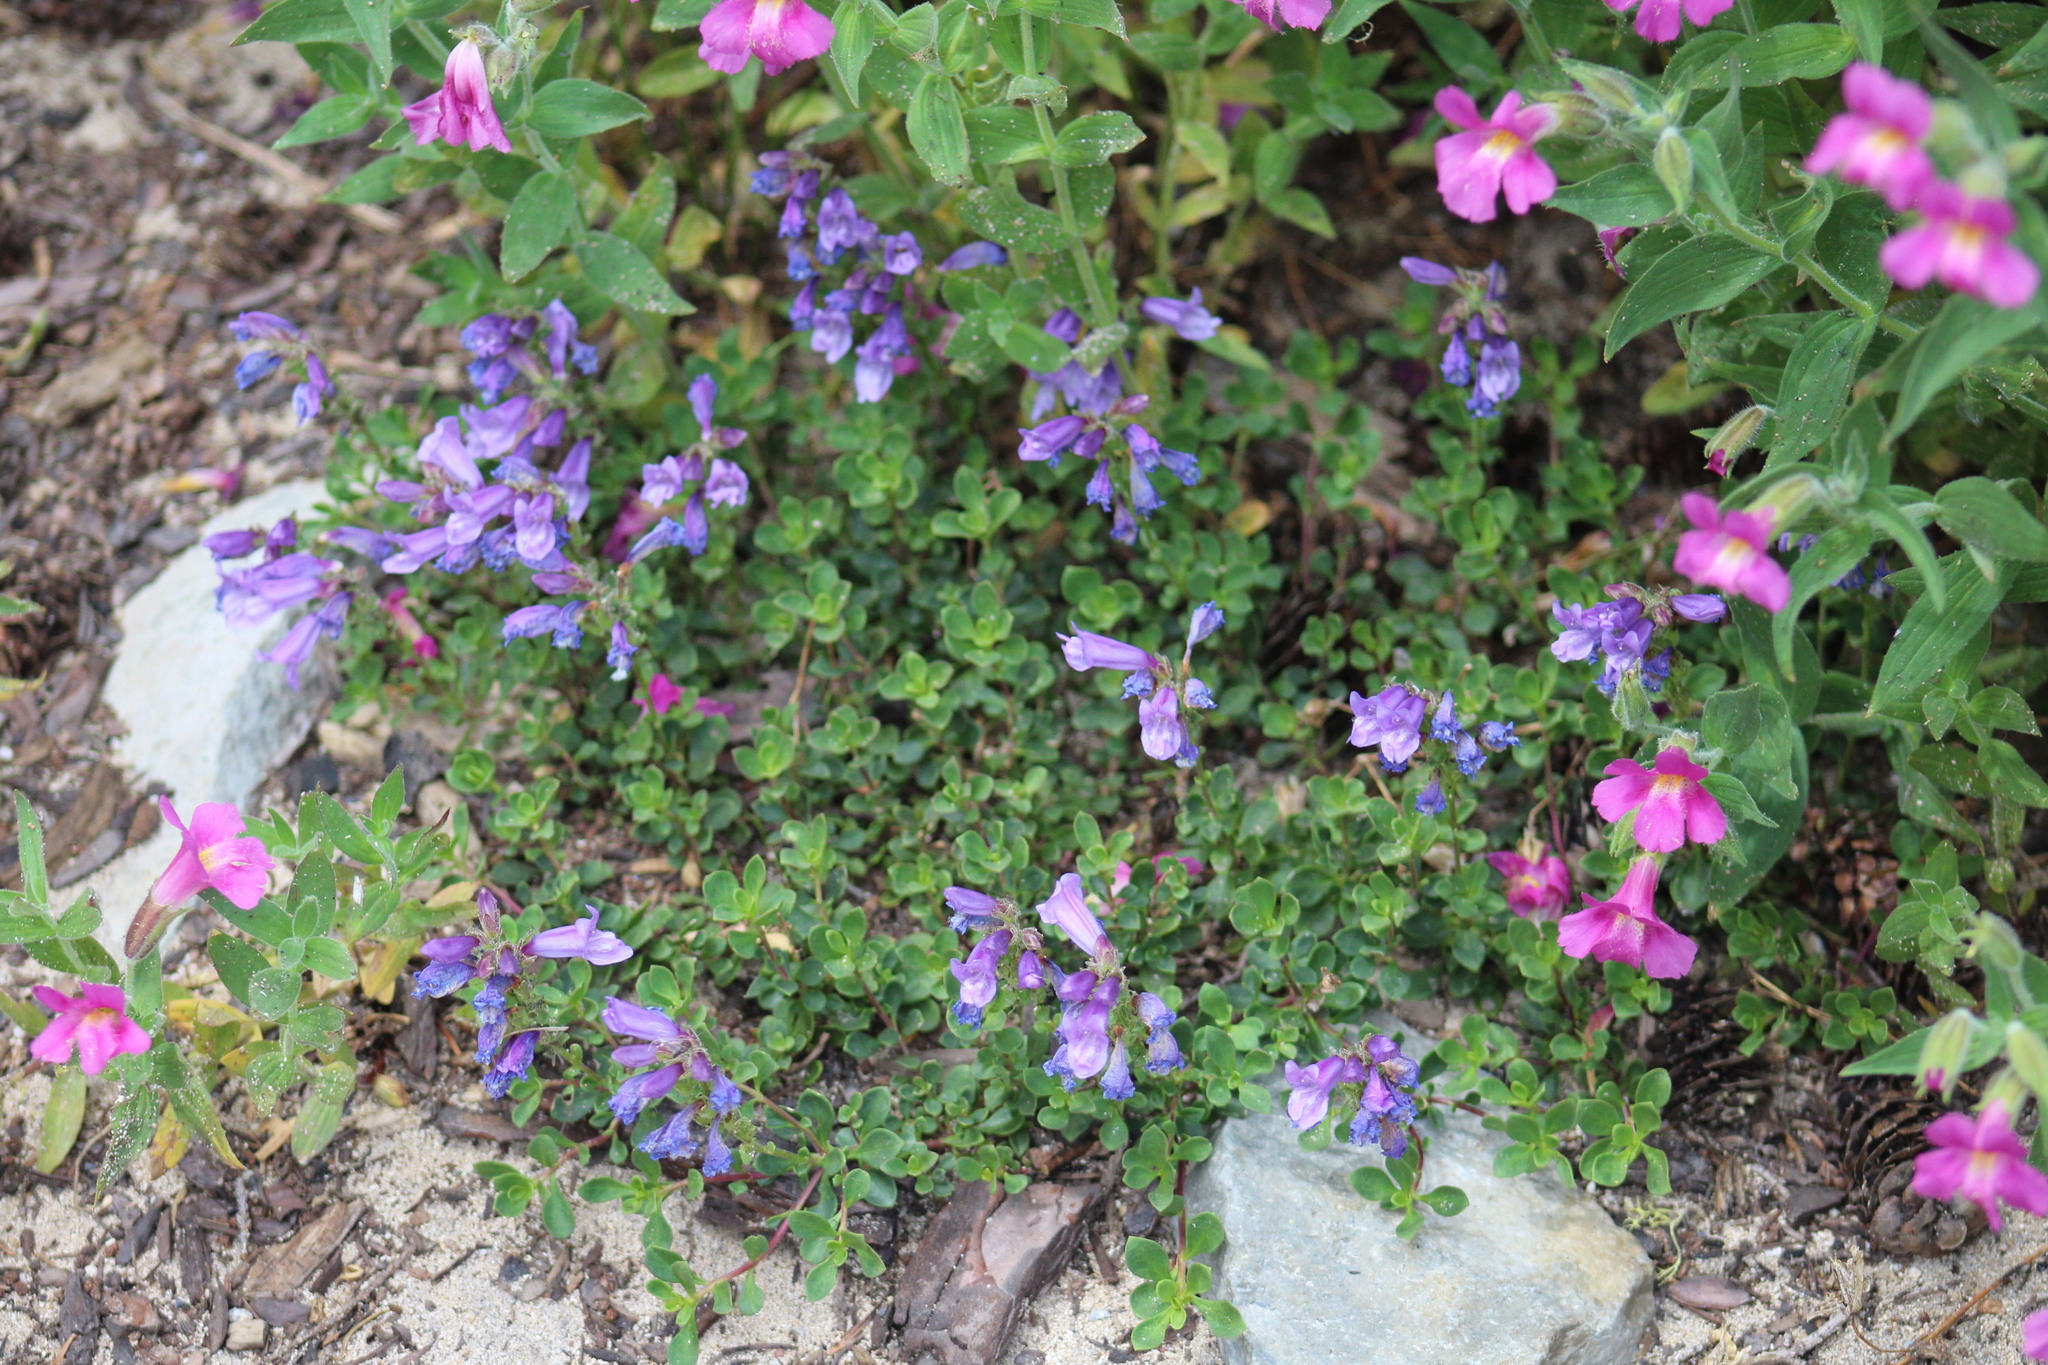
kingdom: Plantae
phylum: Tracheophyta
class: Magnoliopsida
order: Lamiales
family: Plantaginaceae
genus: Penstemon
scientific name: Penstemon davidsonii
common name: Davidson's penstemon
